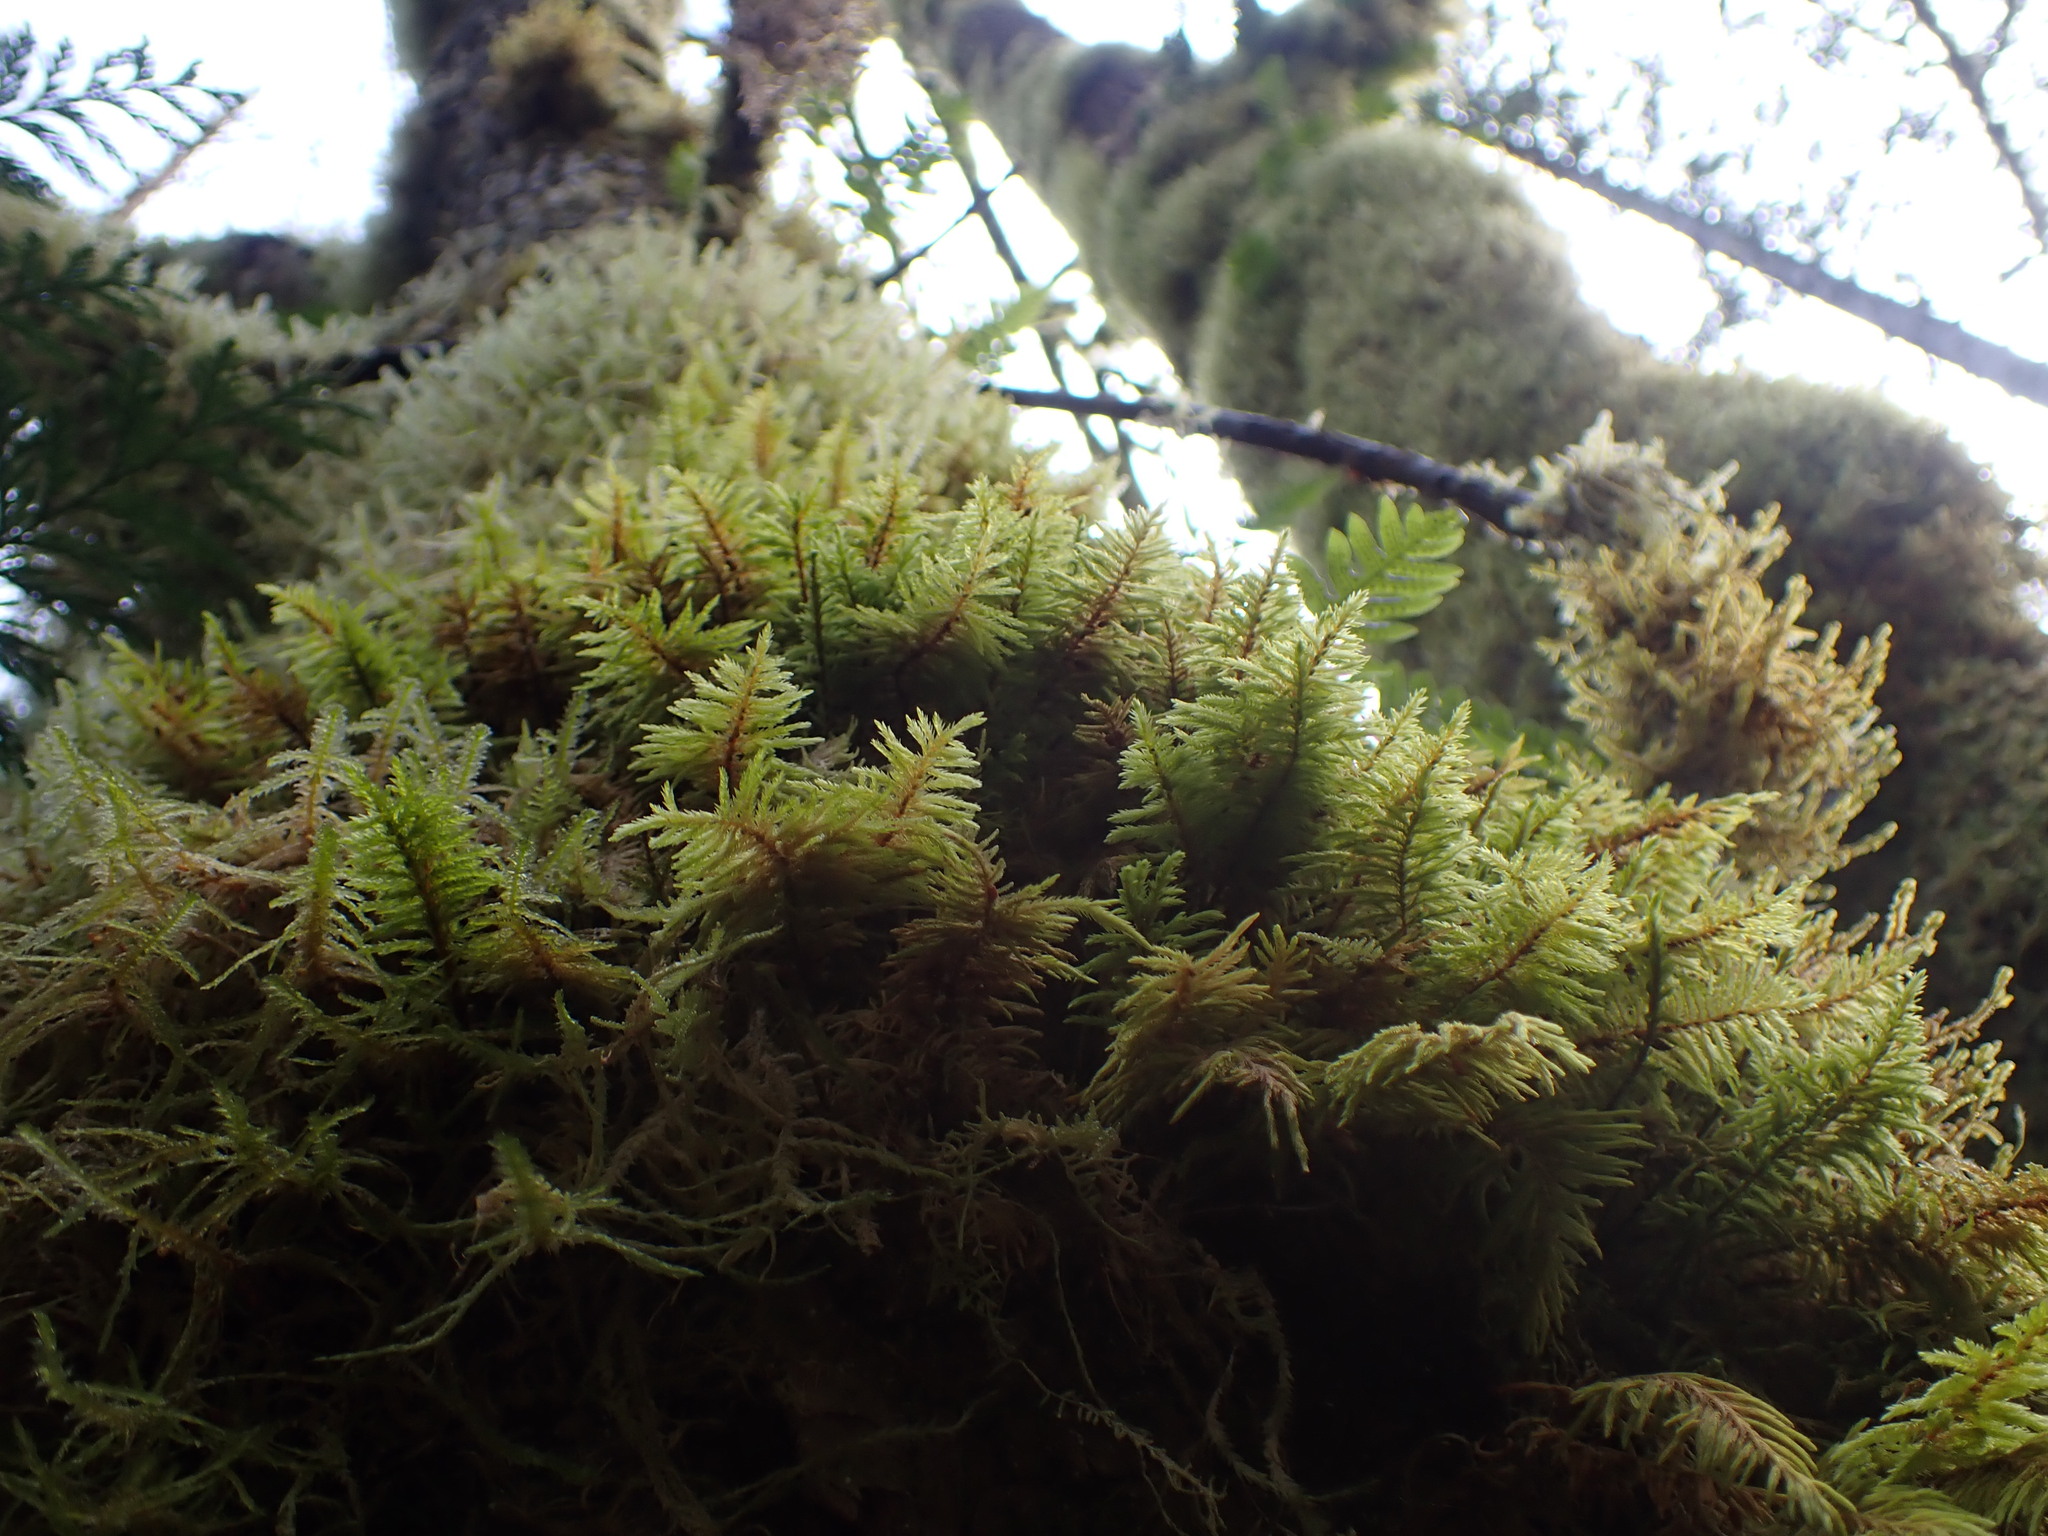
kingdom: Plantae
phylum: Bryophyta
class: Bryopsida
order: Hypnales
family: Cryphaeaceae
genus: Dendroalsia
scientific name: Dendroalsia abietina
